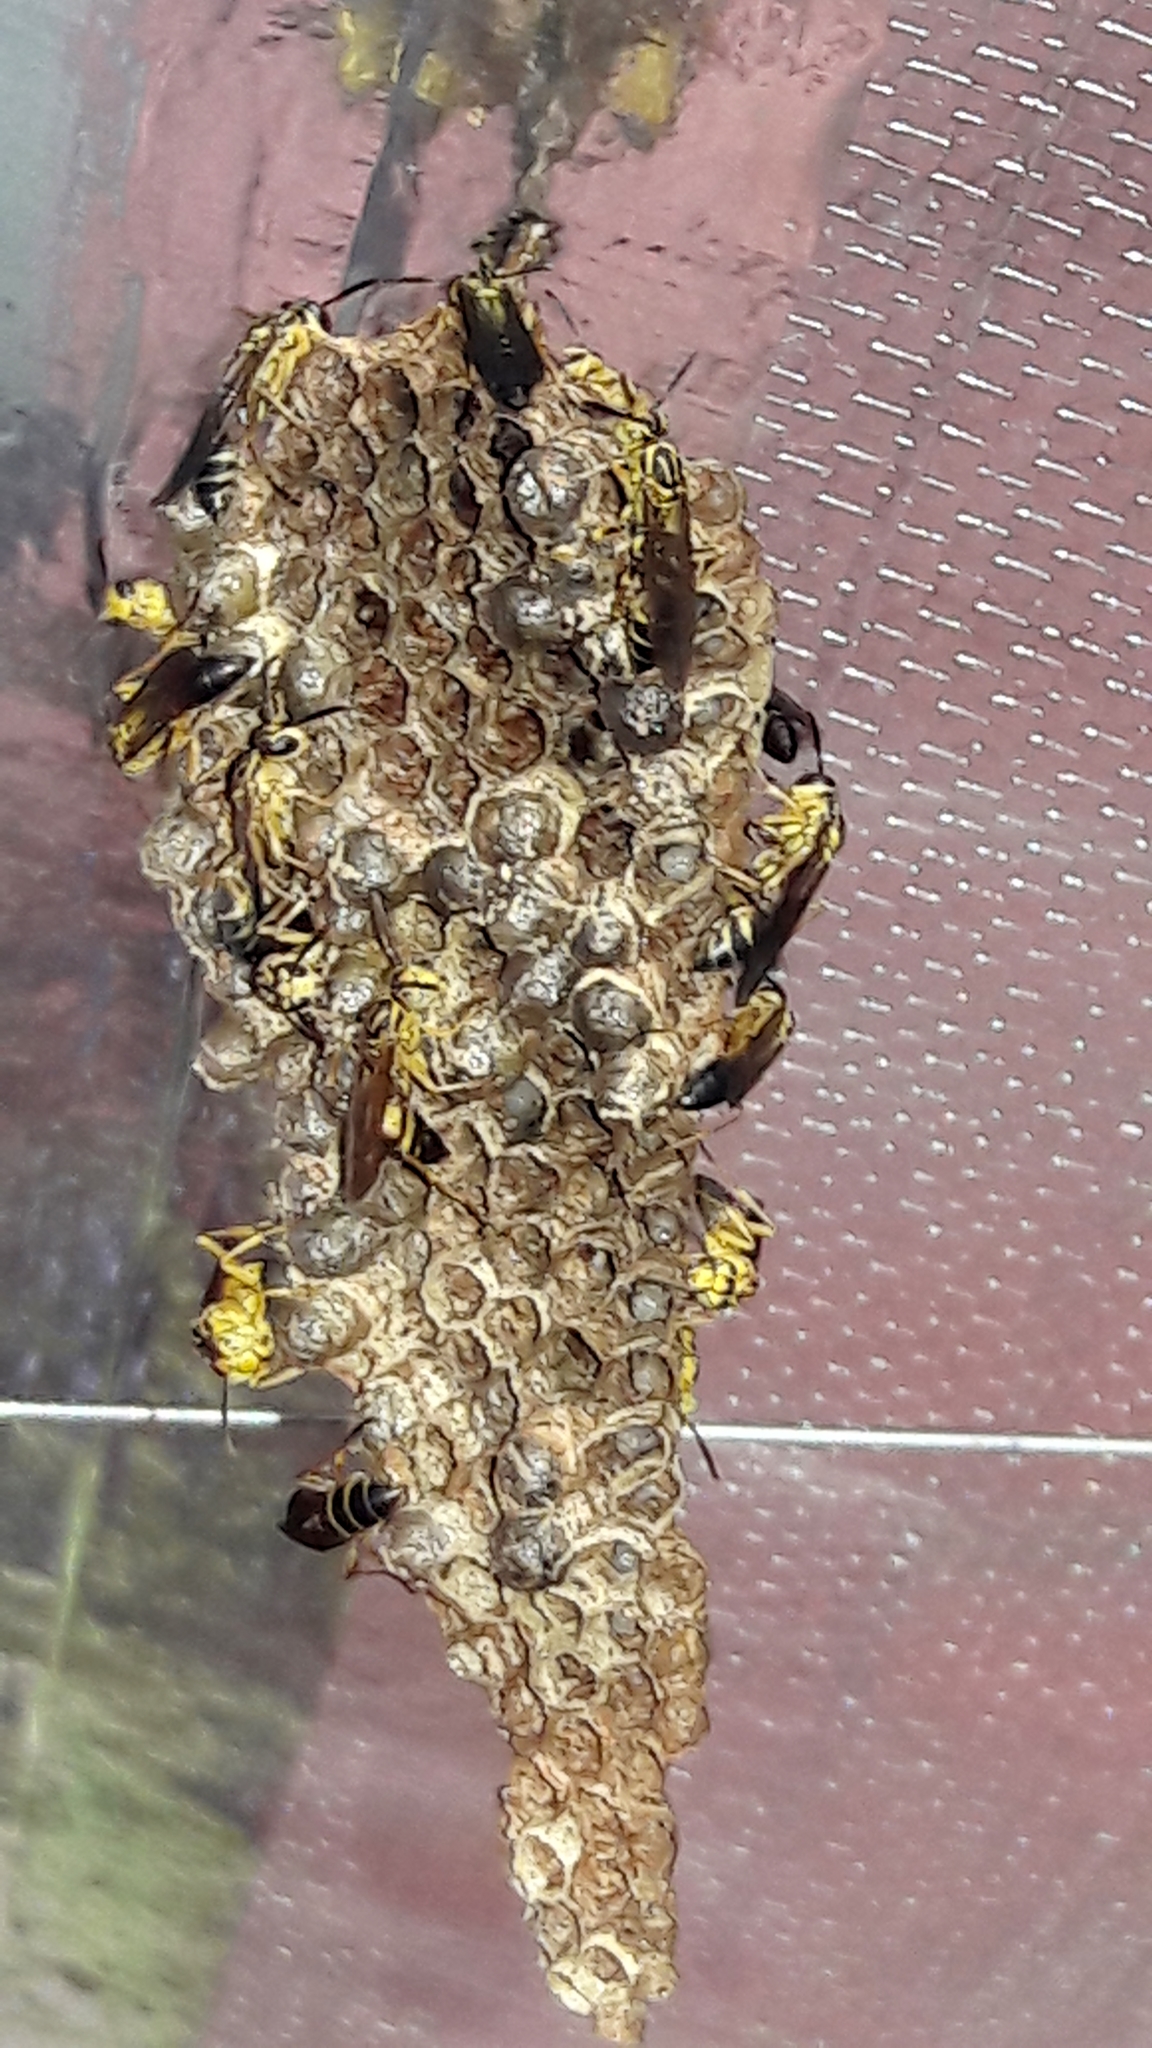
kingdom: Animalia
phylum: Arthropoda
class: Insecta
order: Hymenoptera
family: Vespidae
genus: Mischocyttarus
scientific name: Mischocyttarus cerberus
